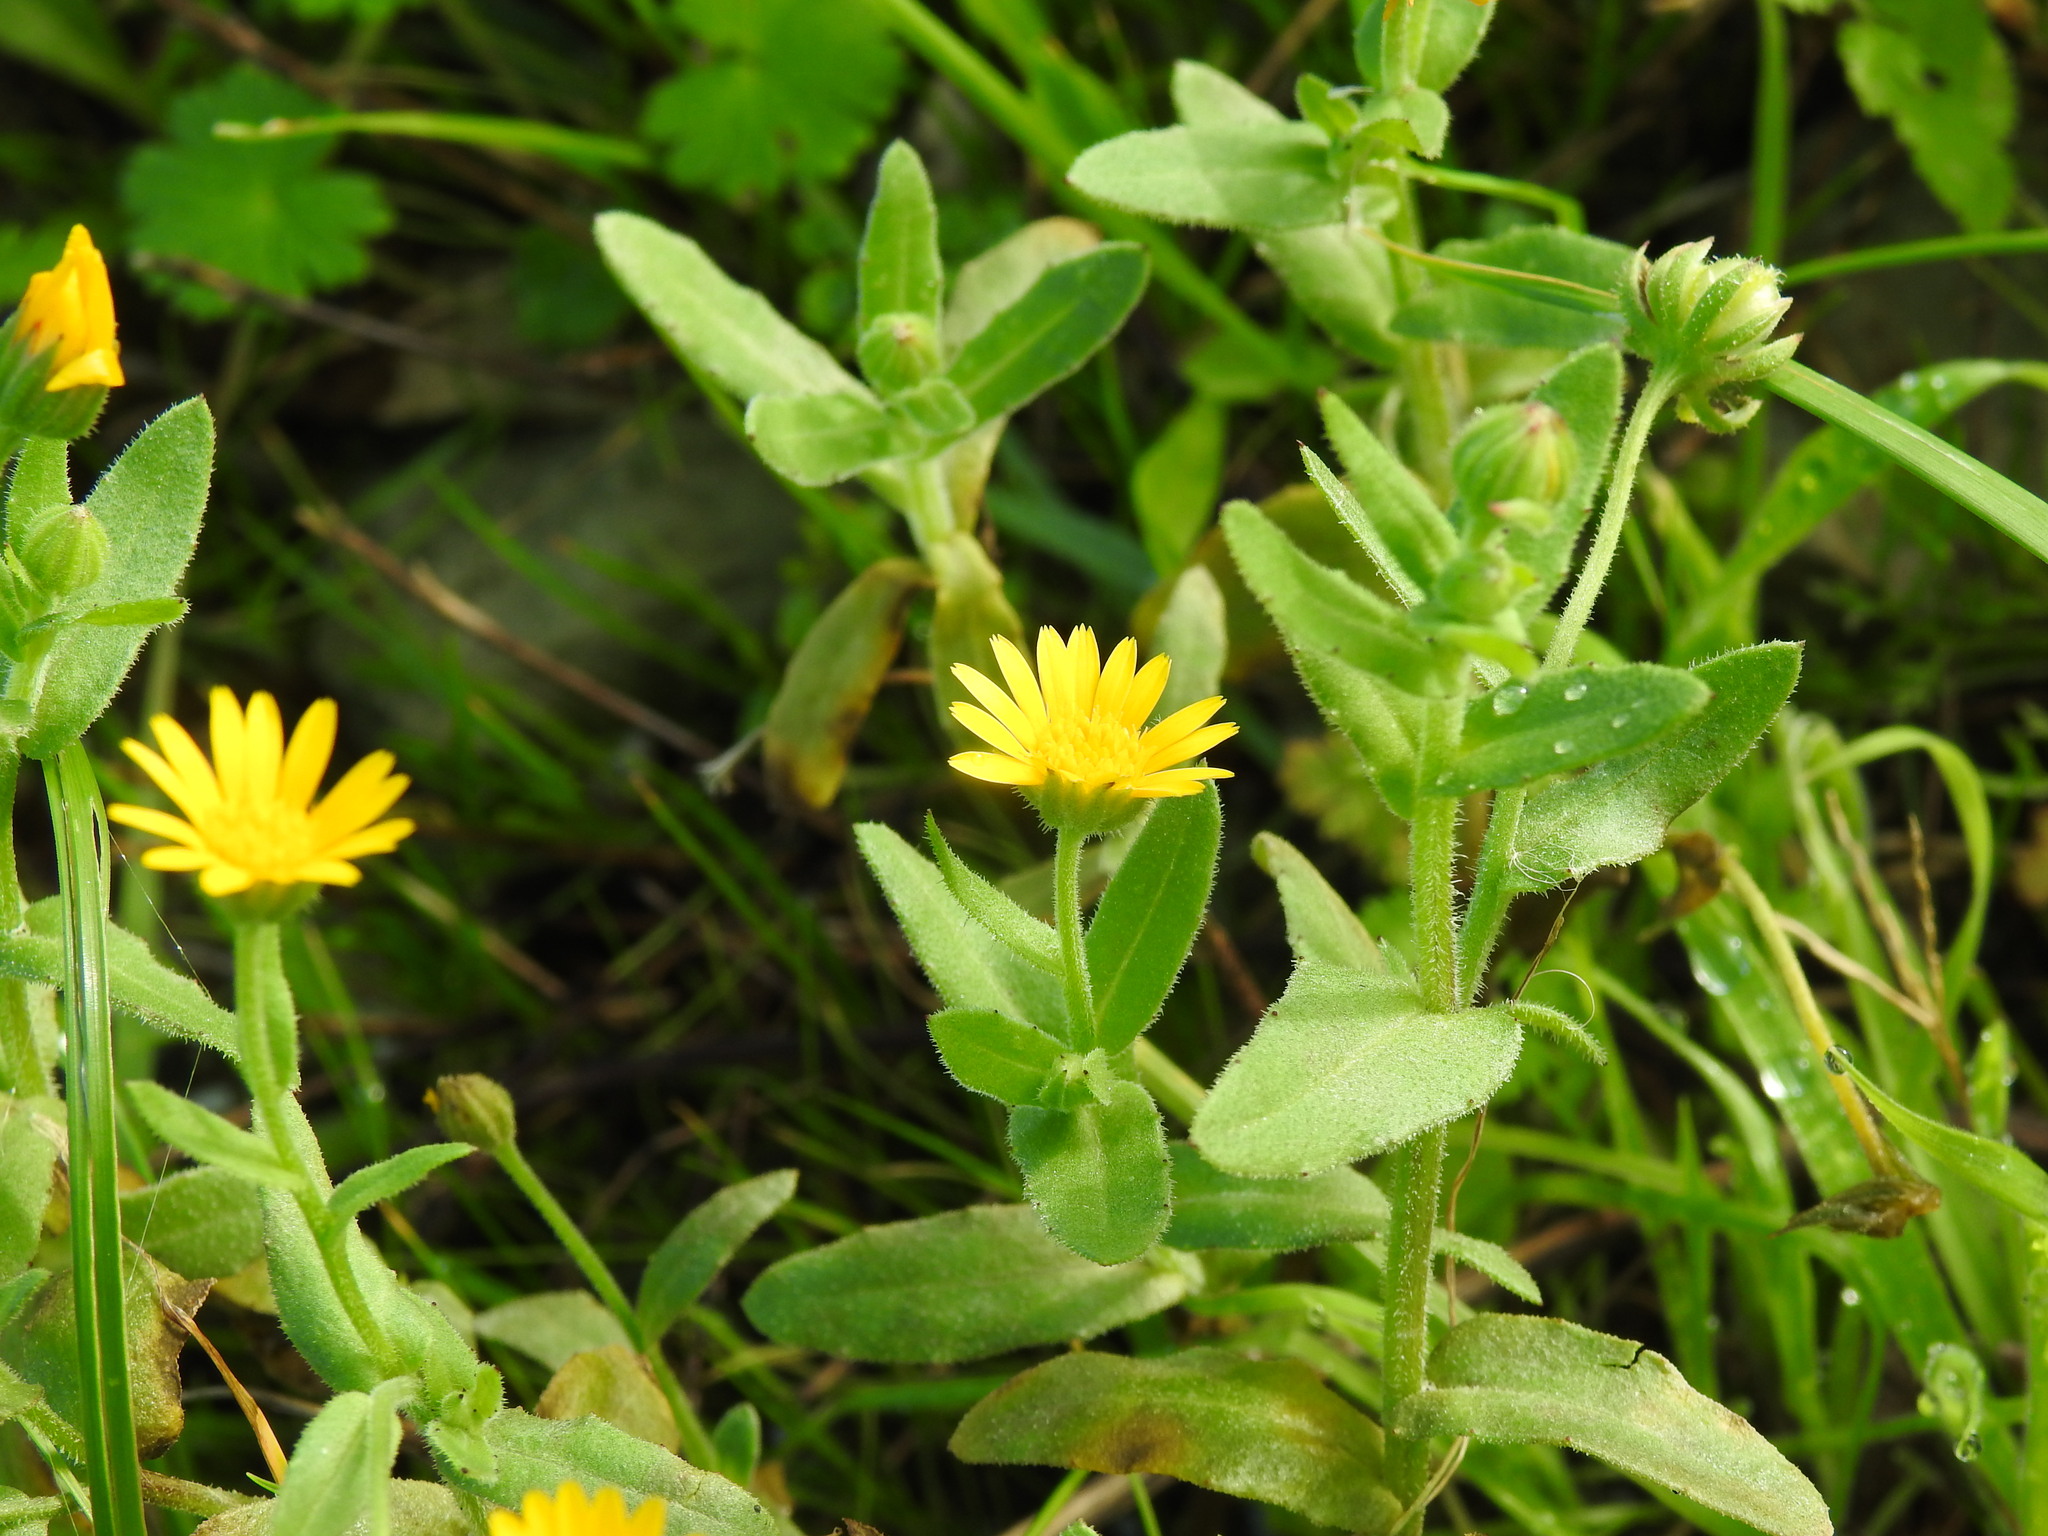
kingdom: Plantae
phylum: Tracheophyta
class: Magnoliopsida
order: Asterales
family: Asteraceae
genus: Calendula
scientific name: Calendula arvensis
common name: Field marigold
